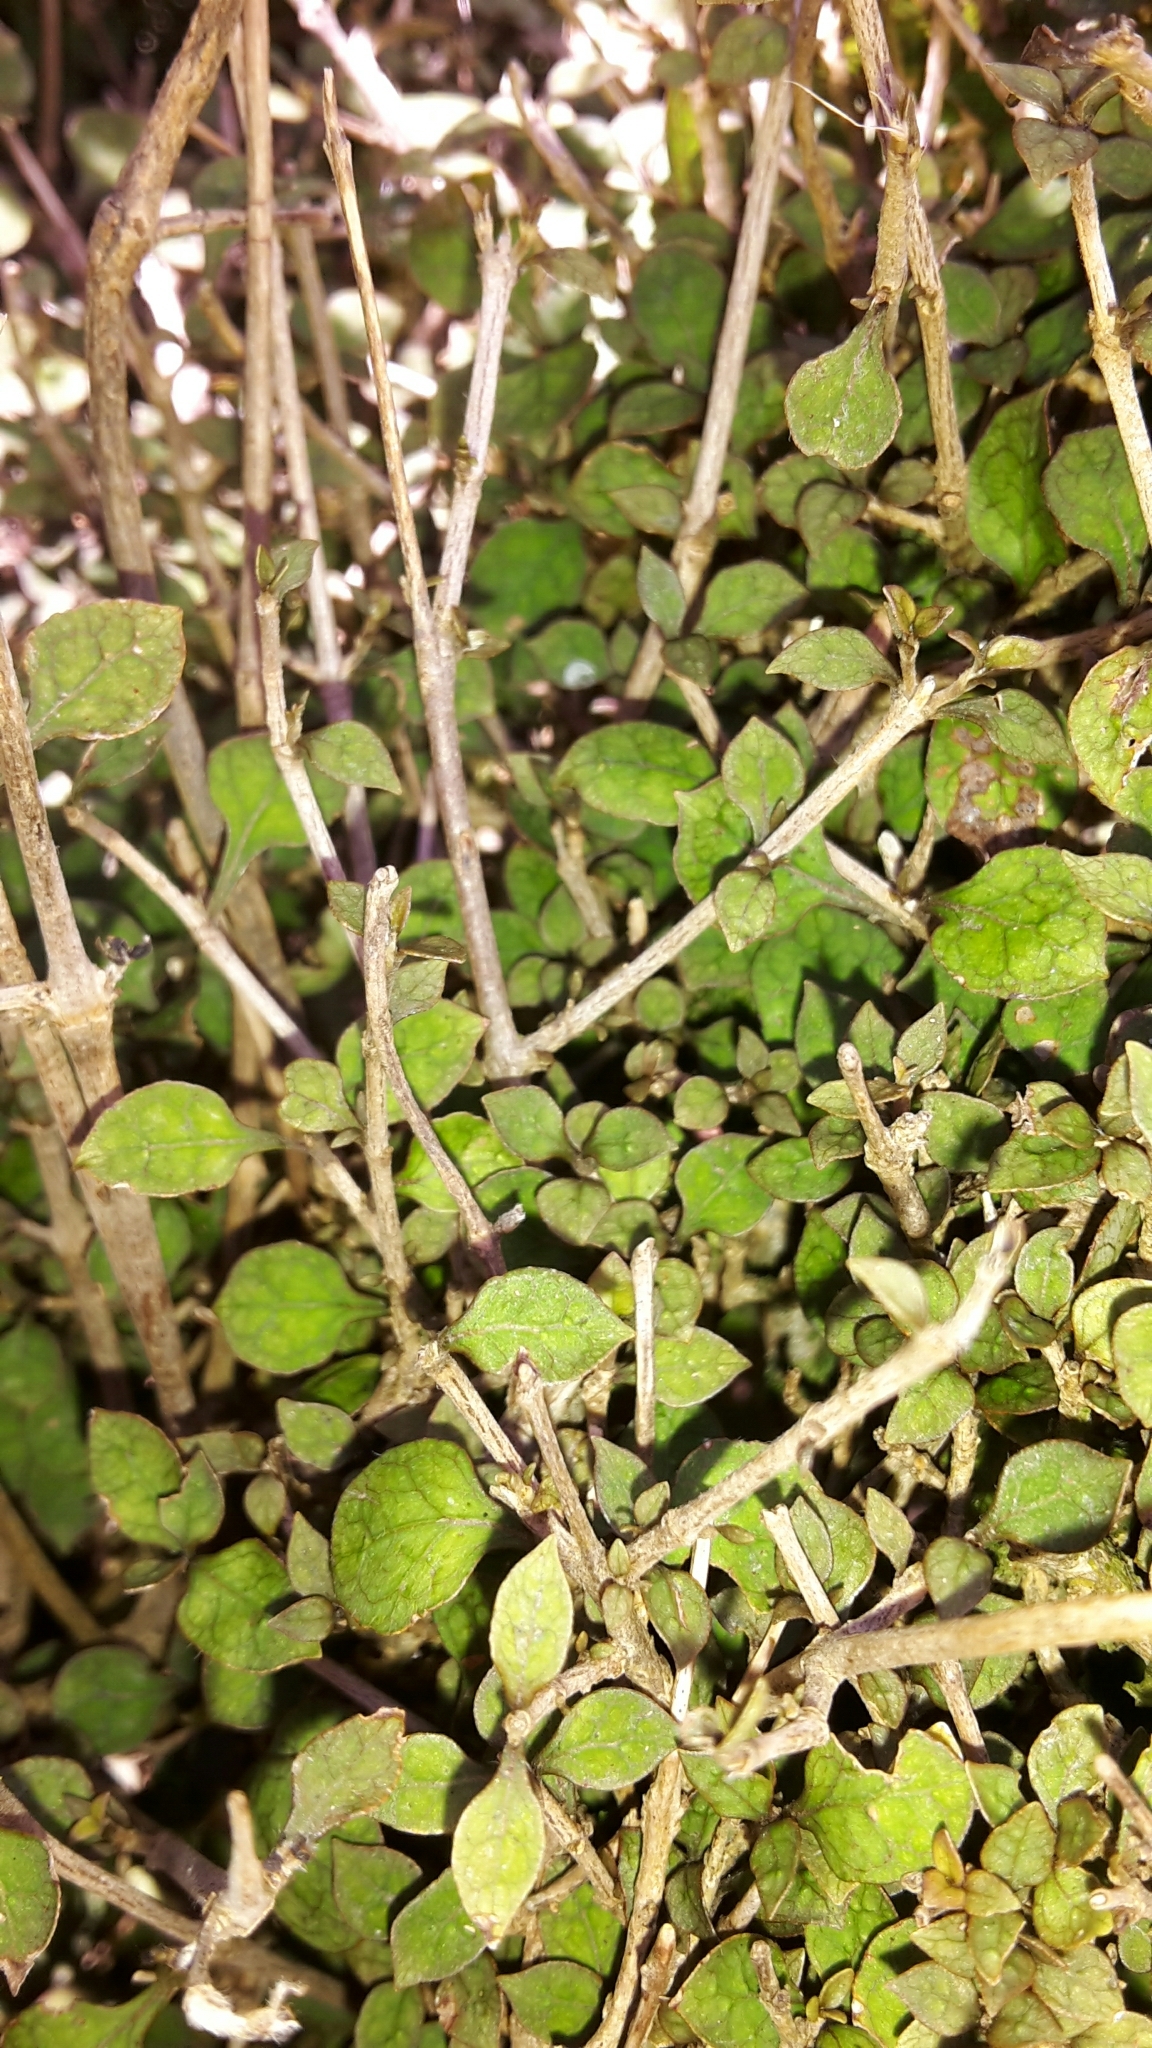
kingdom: Plantae
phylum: Tracheophyta
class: Magnoliopsida
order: Gentianales
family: Rubiaceae
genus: Coprosma
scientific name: Coprosma areolata
